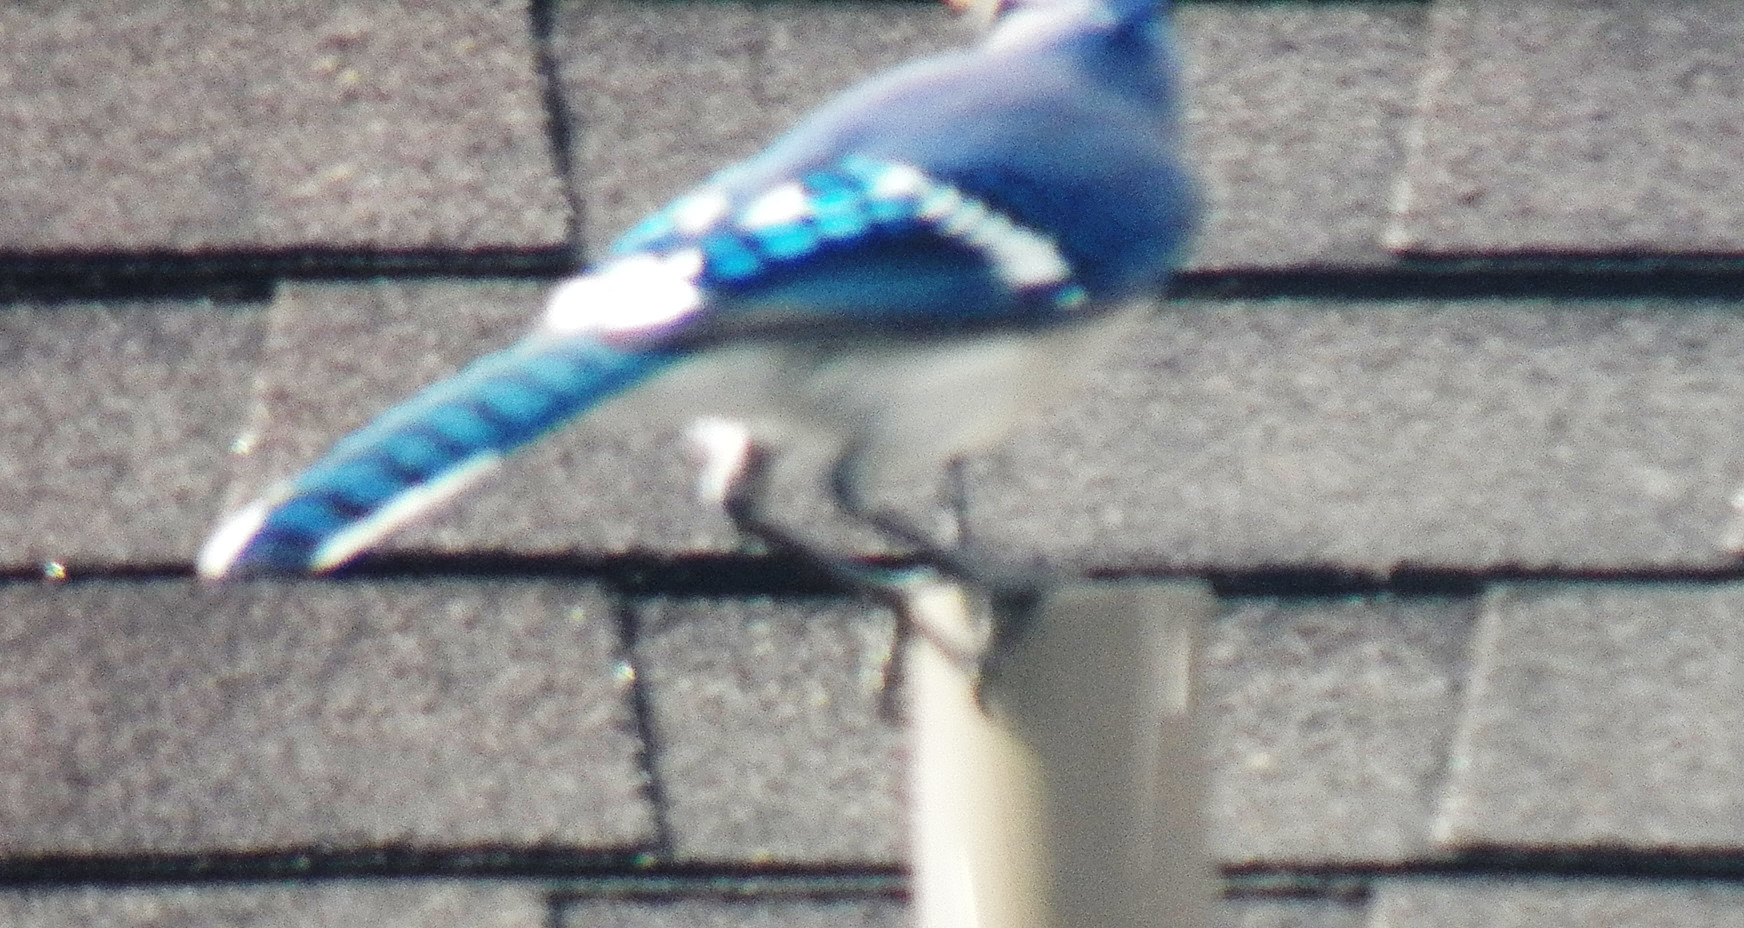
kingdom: Animalia
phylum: Chordata
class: Aves
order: Passeriformes
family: Corvidae
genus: Cyanocitta
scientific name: Cyanocitta cristata
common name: Blue jay
